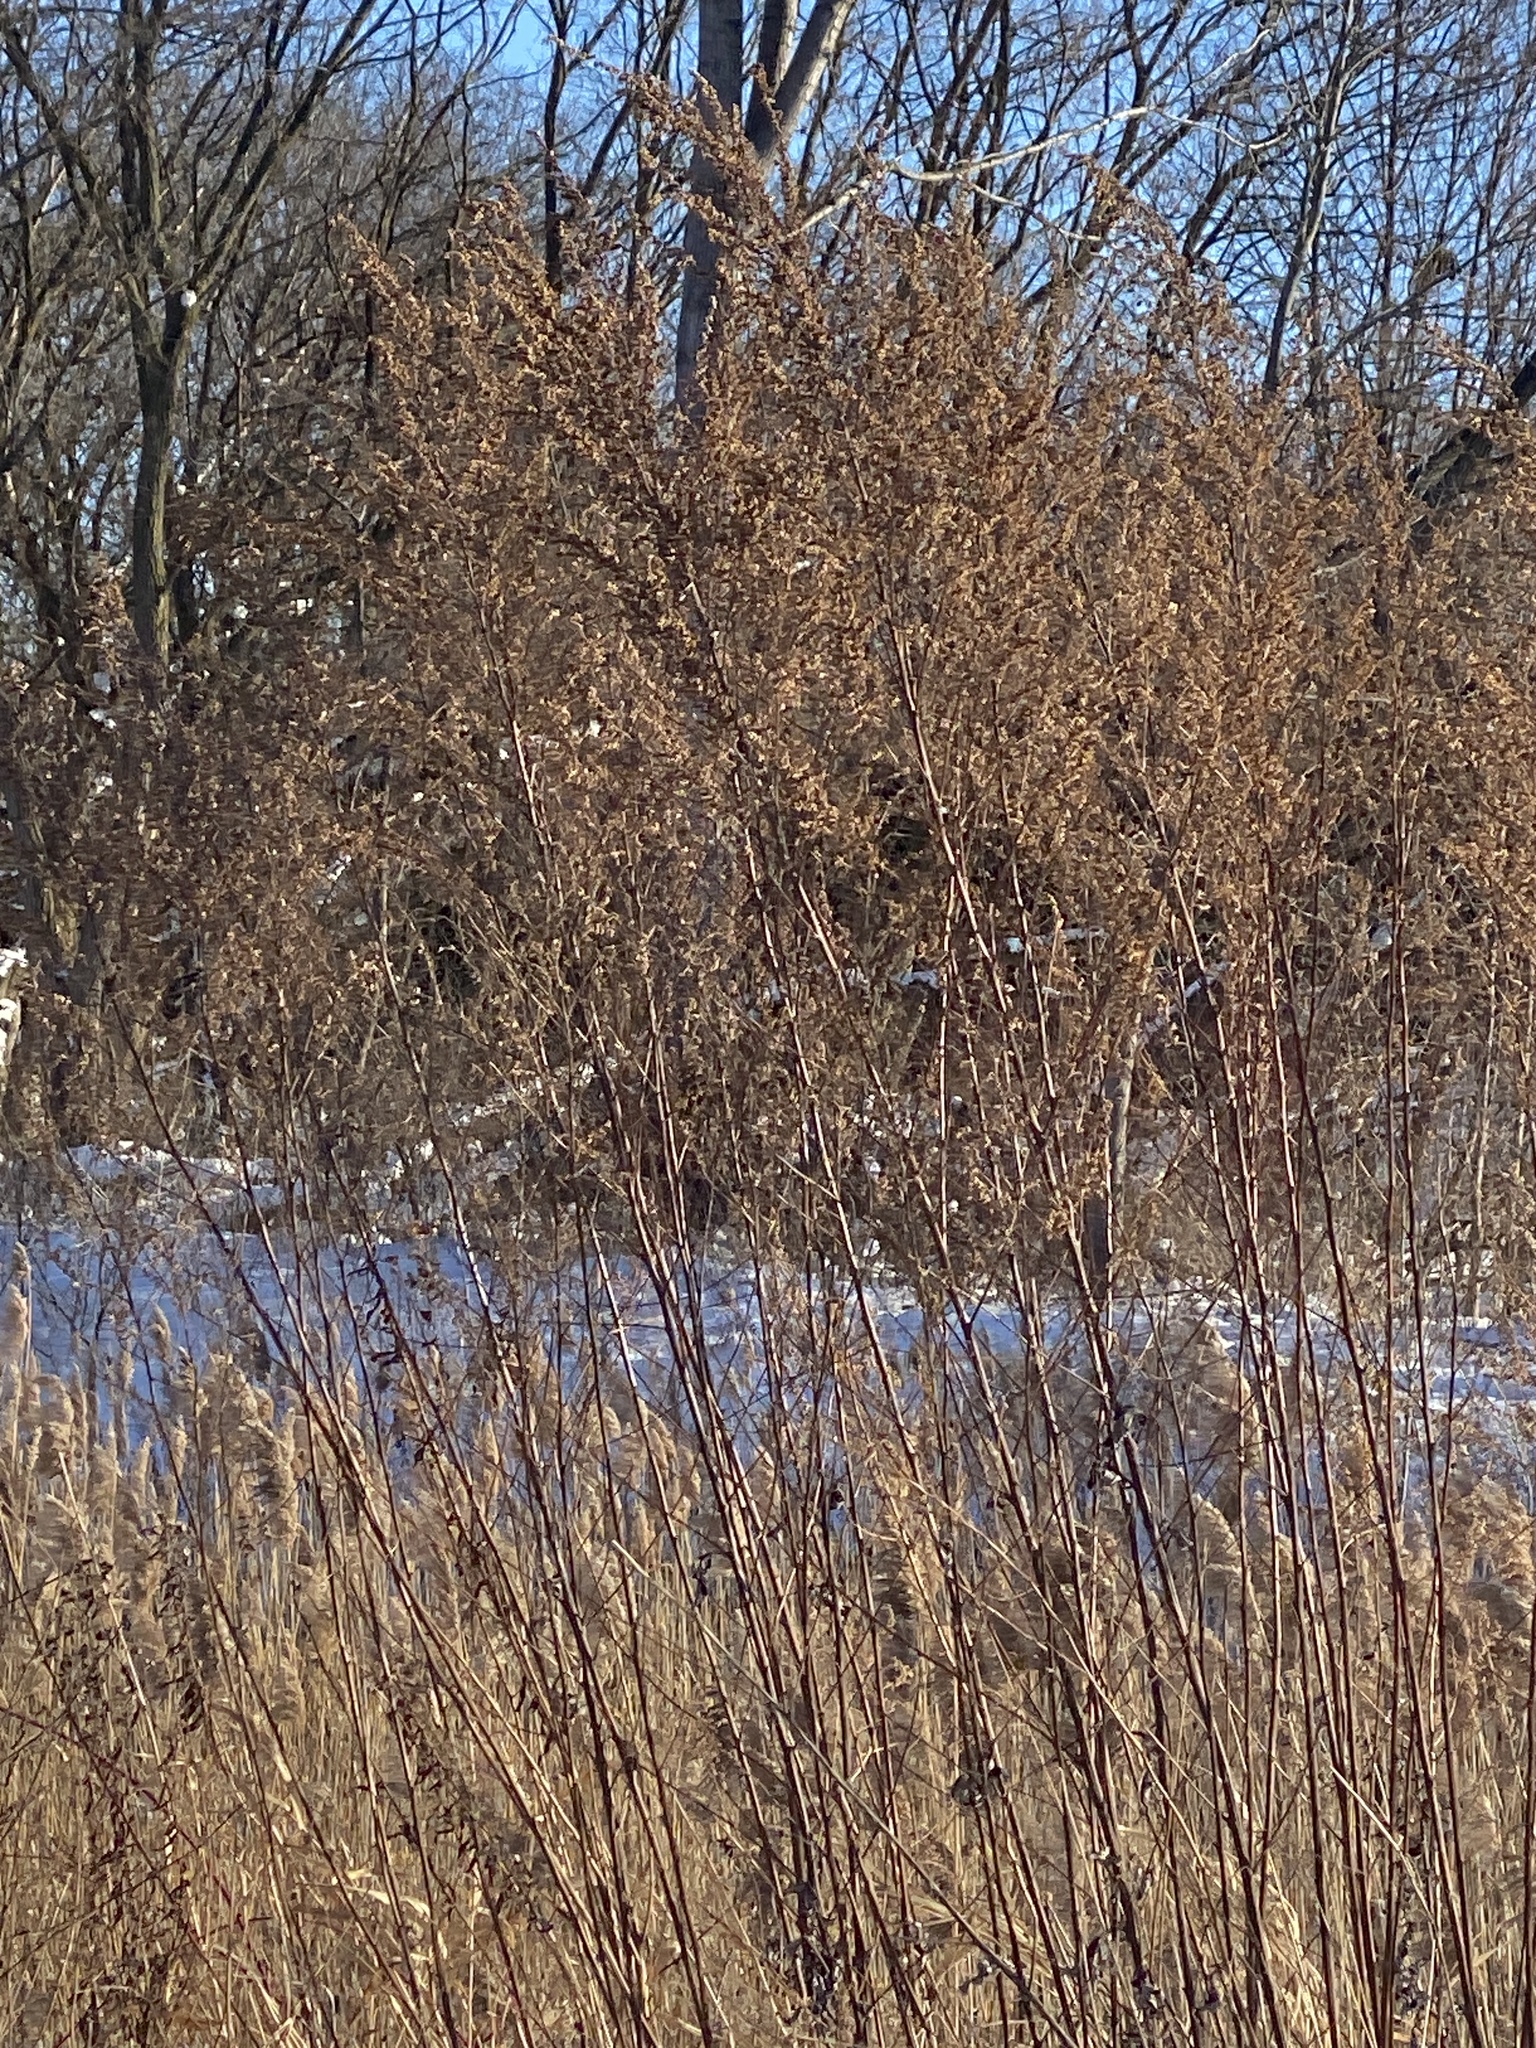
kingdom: Plantae
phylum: Tracheophyta
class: Magnoliopsida
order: Asterales
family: Asteraceae
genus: Artemisia
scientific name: Artemisia vulgaris
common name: Mugwort
